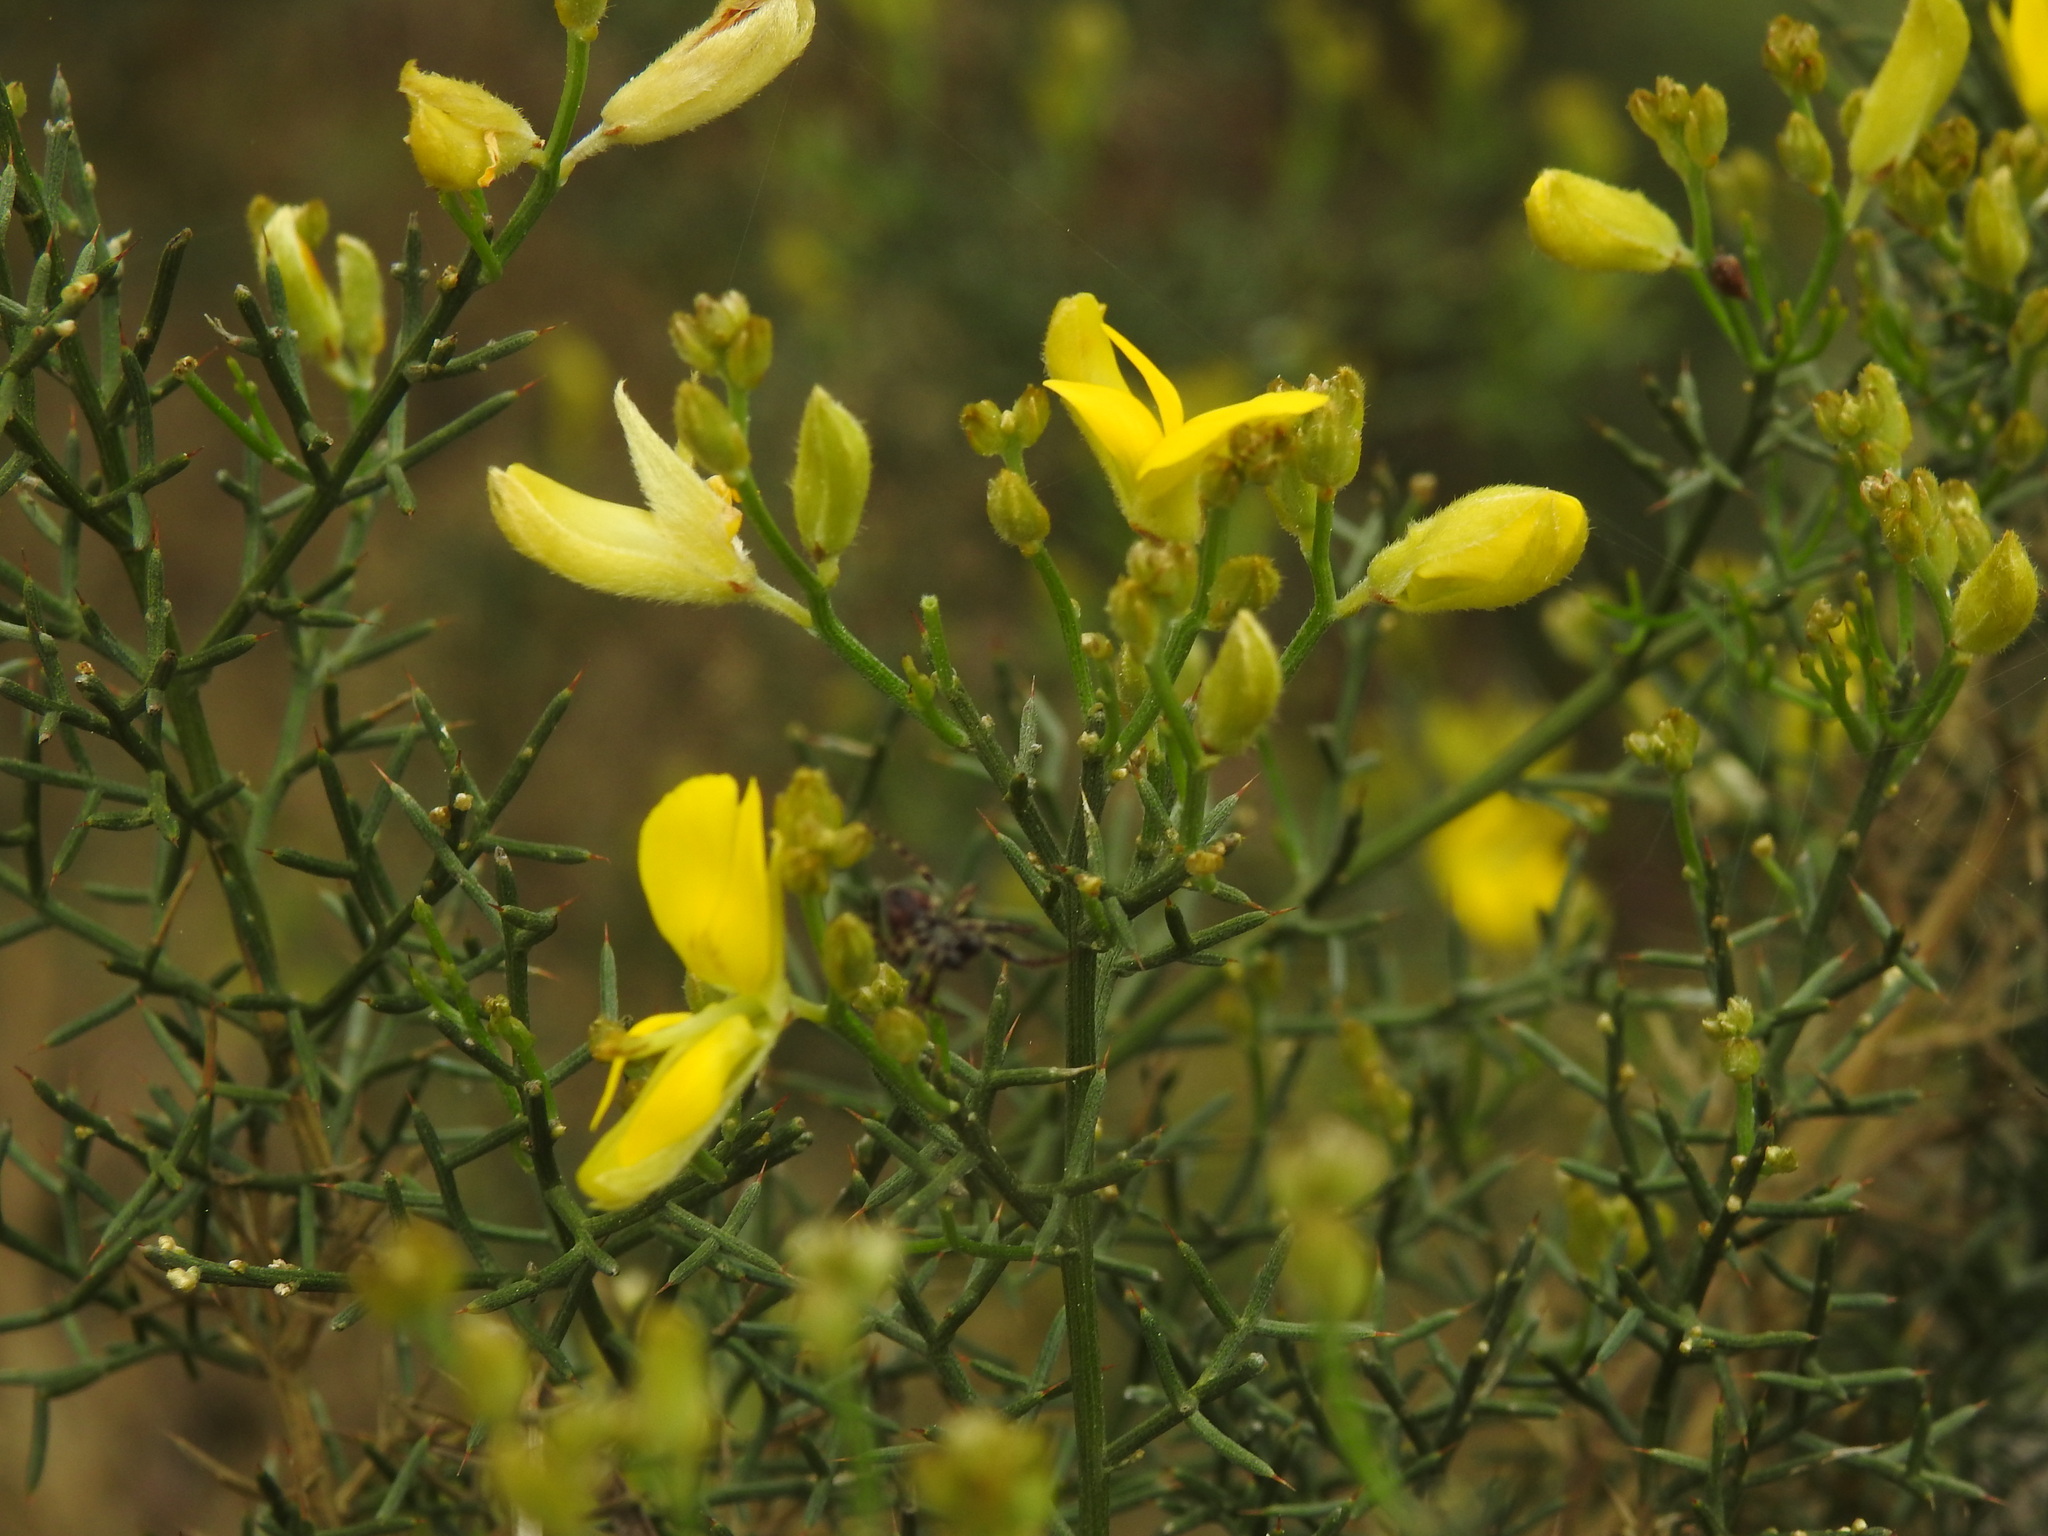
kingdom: Plantae
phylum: Tracheophyta
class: Magnoliopsida
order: Fabales
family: Fabaceae
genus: Stauracanthus
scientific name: Stauracanthus genistoides
